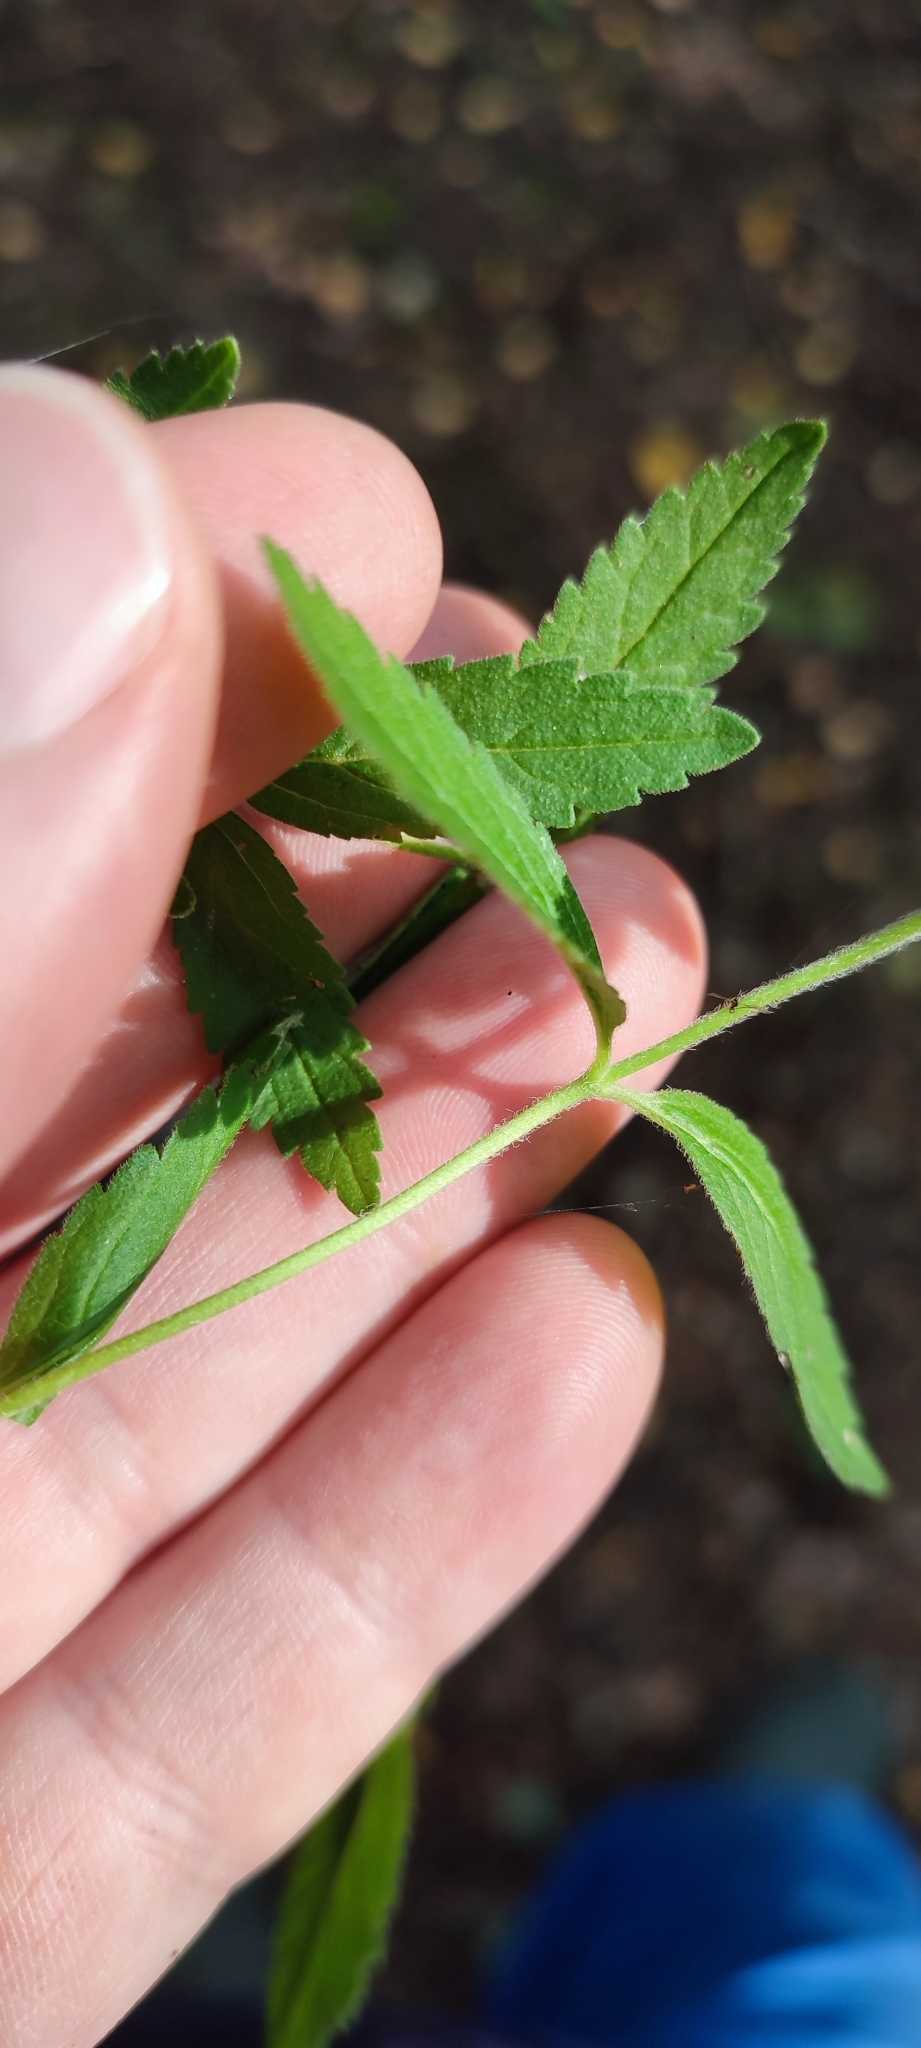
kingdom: Plantae
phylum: Tracheophyta
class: Magnoliopsida
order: Lamiales
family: Plantaginaceae
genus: Veronica
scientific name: Veronica teucrium
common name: Large speedwell
